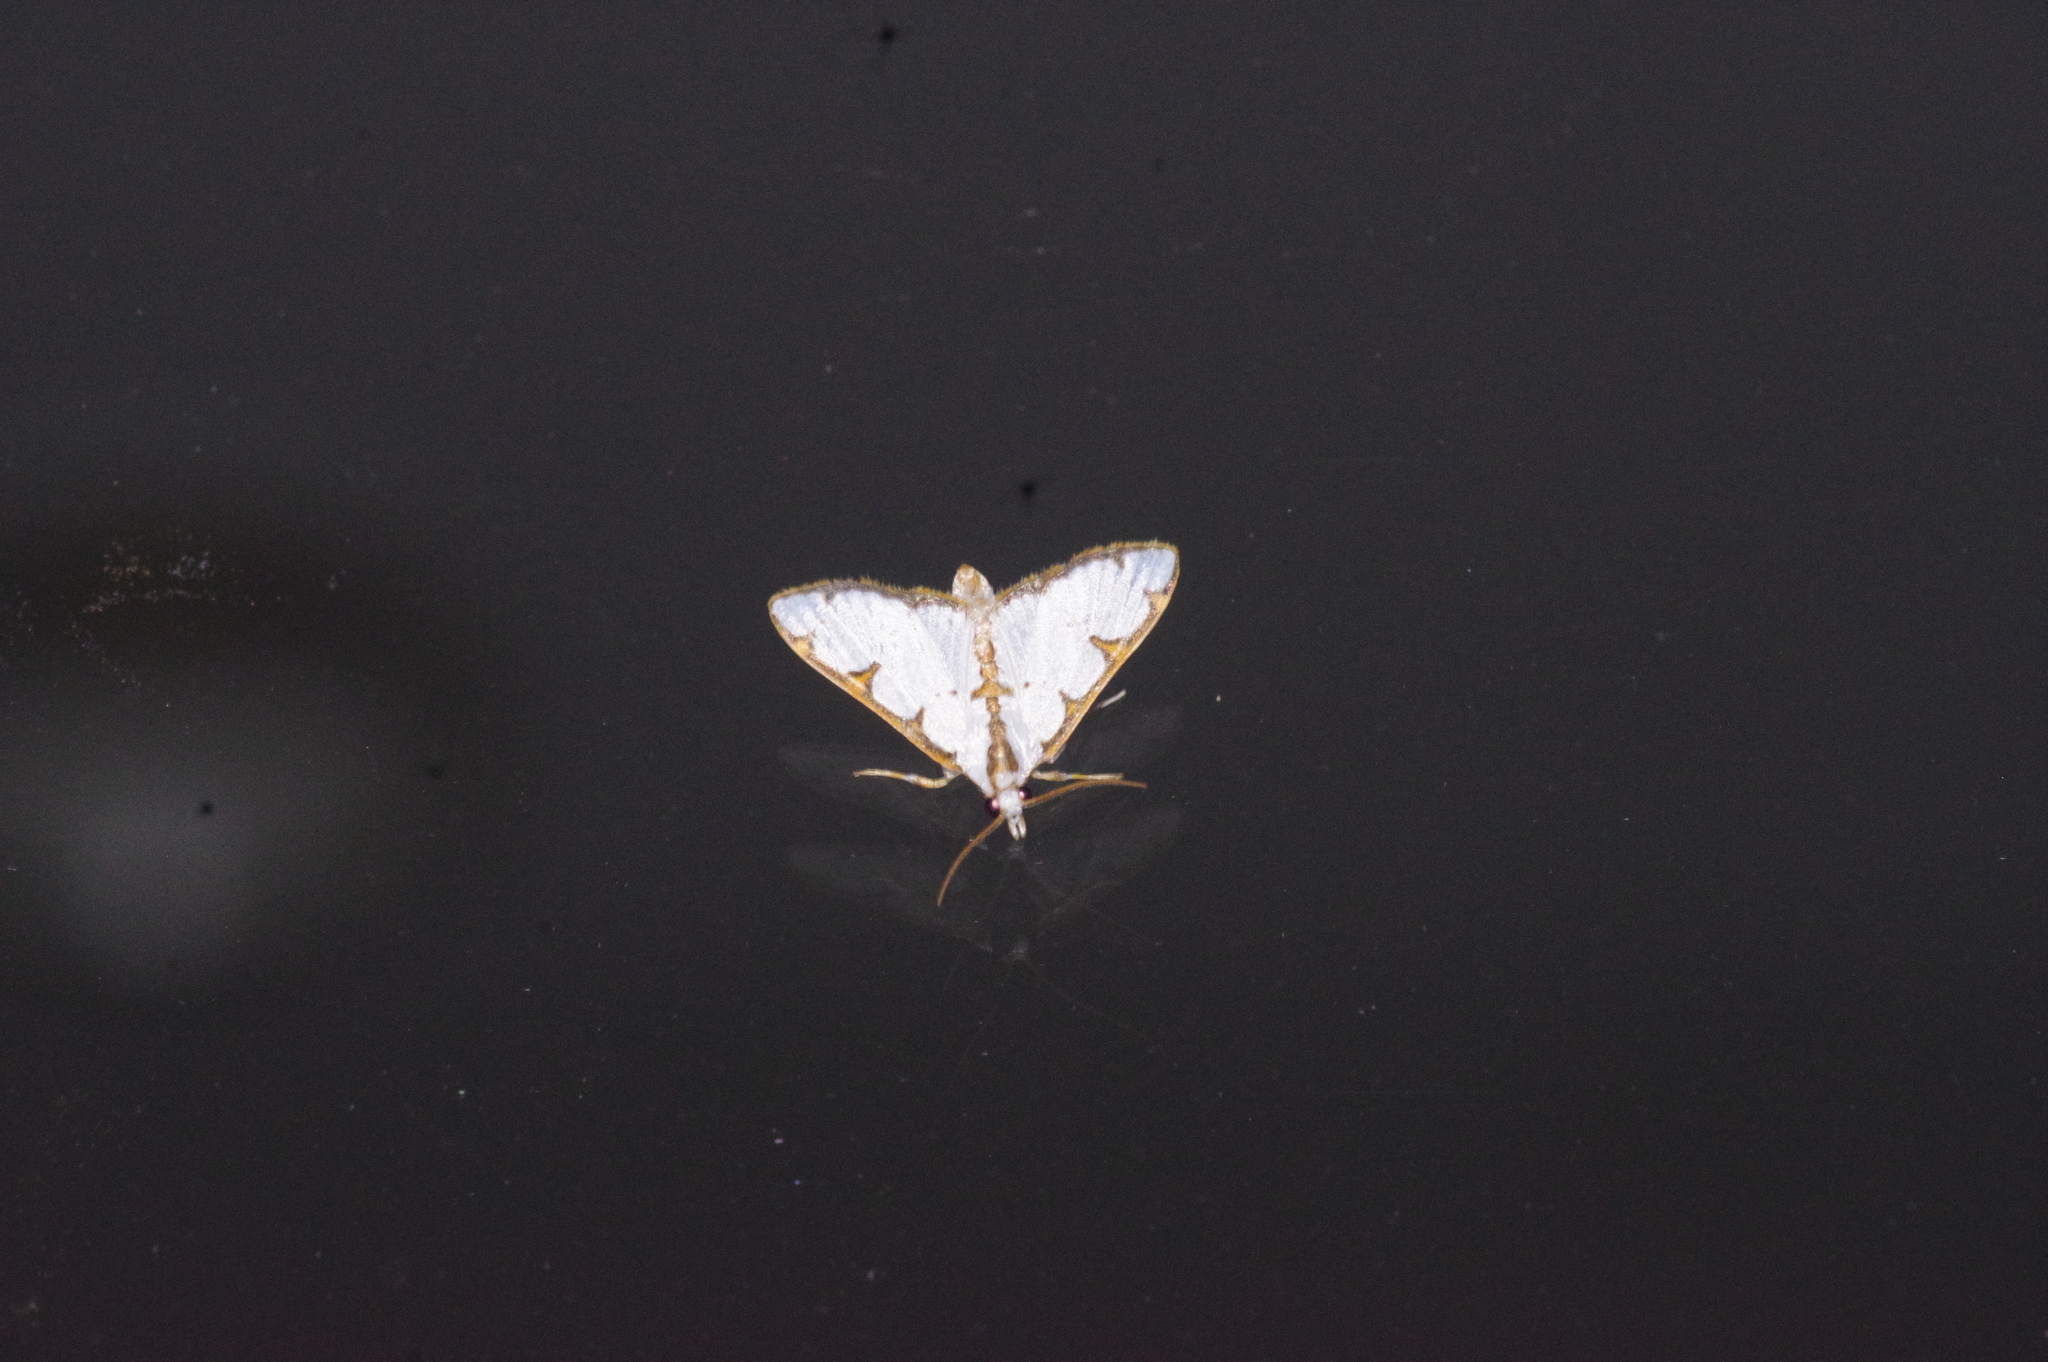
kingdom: Animalia
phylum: Arthropoda
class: Insecta
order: Lepidoptera
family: Crambidae
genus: Cirrhochrista
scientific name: Cirrhochrista brizoalis
